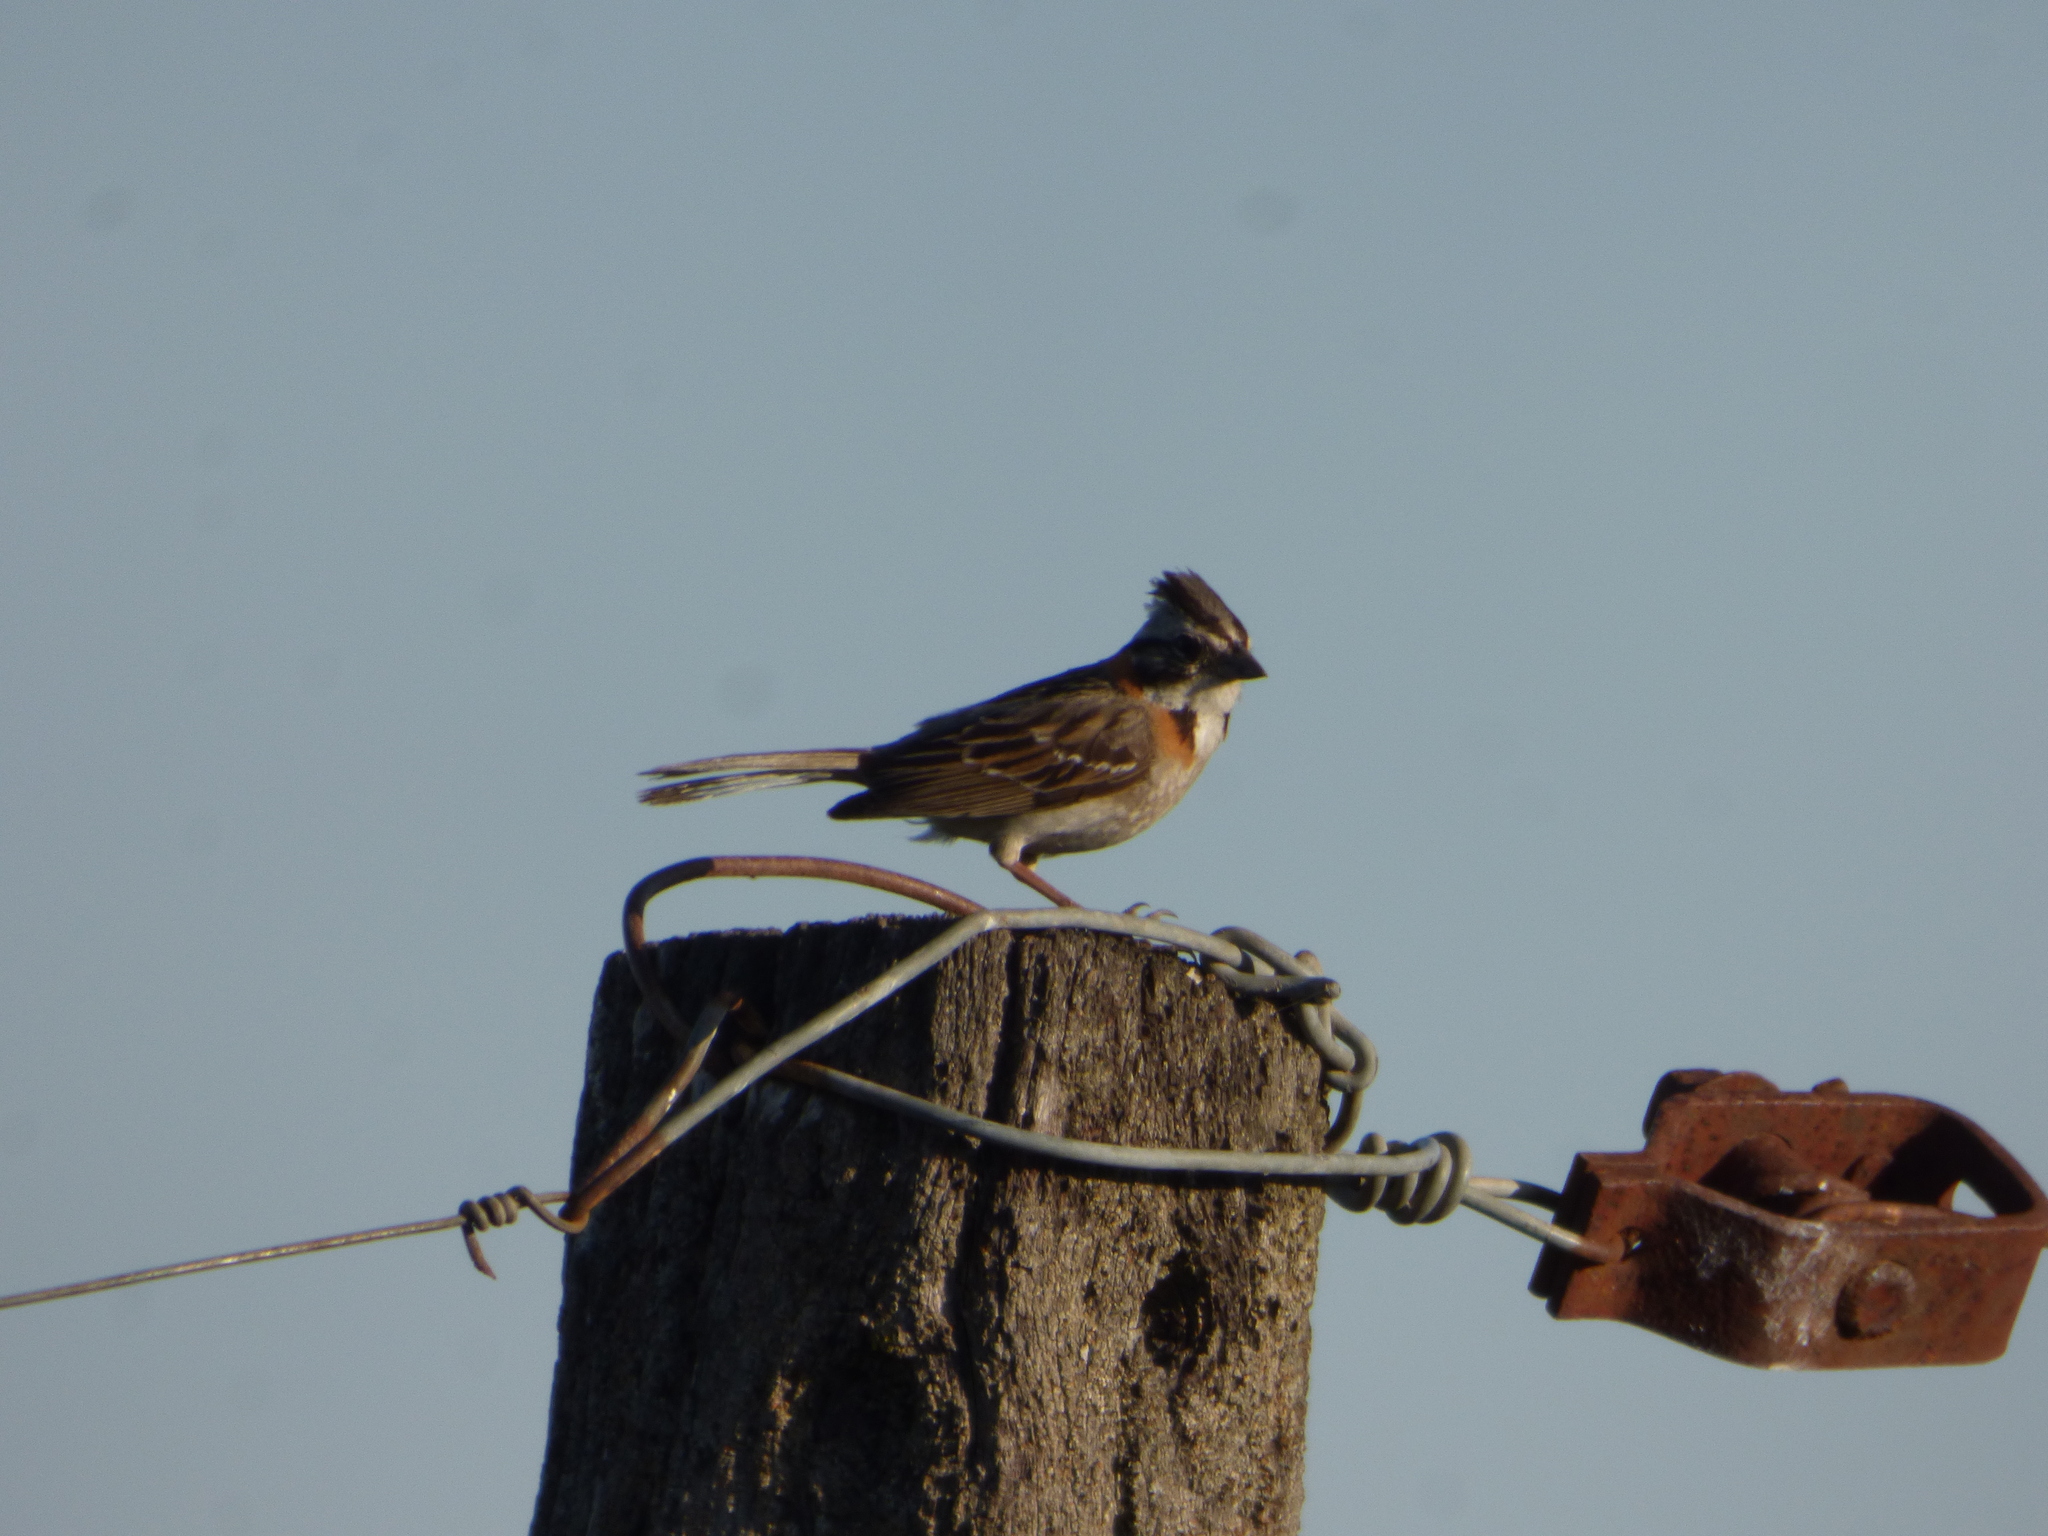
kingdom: Animalia
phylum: Chordata
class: Aves
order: Passeriformes
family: Passerellidae
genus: Zonotrichia
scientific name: Zonotrichia capensis
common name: Rufous-collared sparrow
